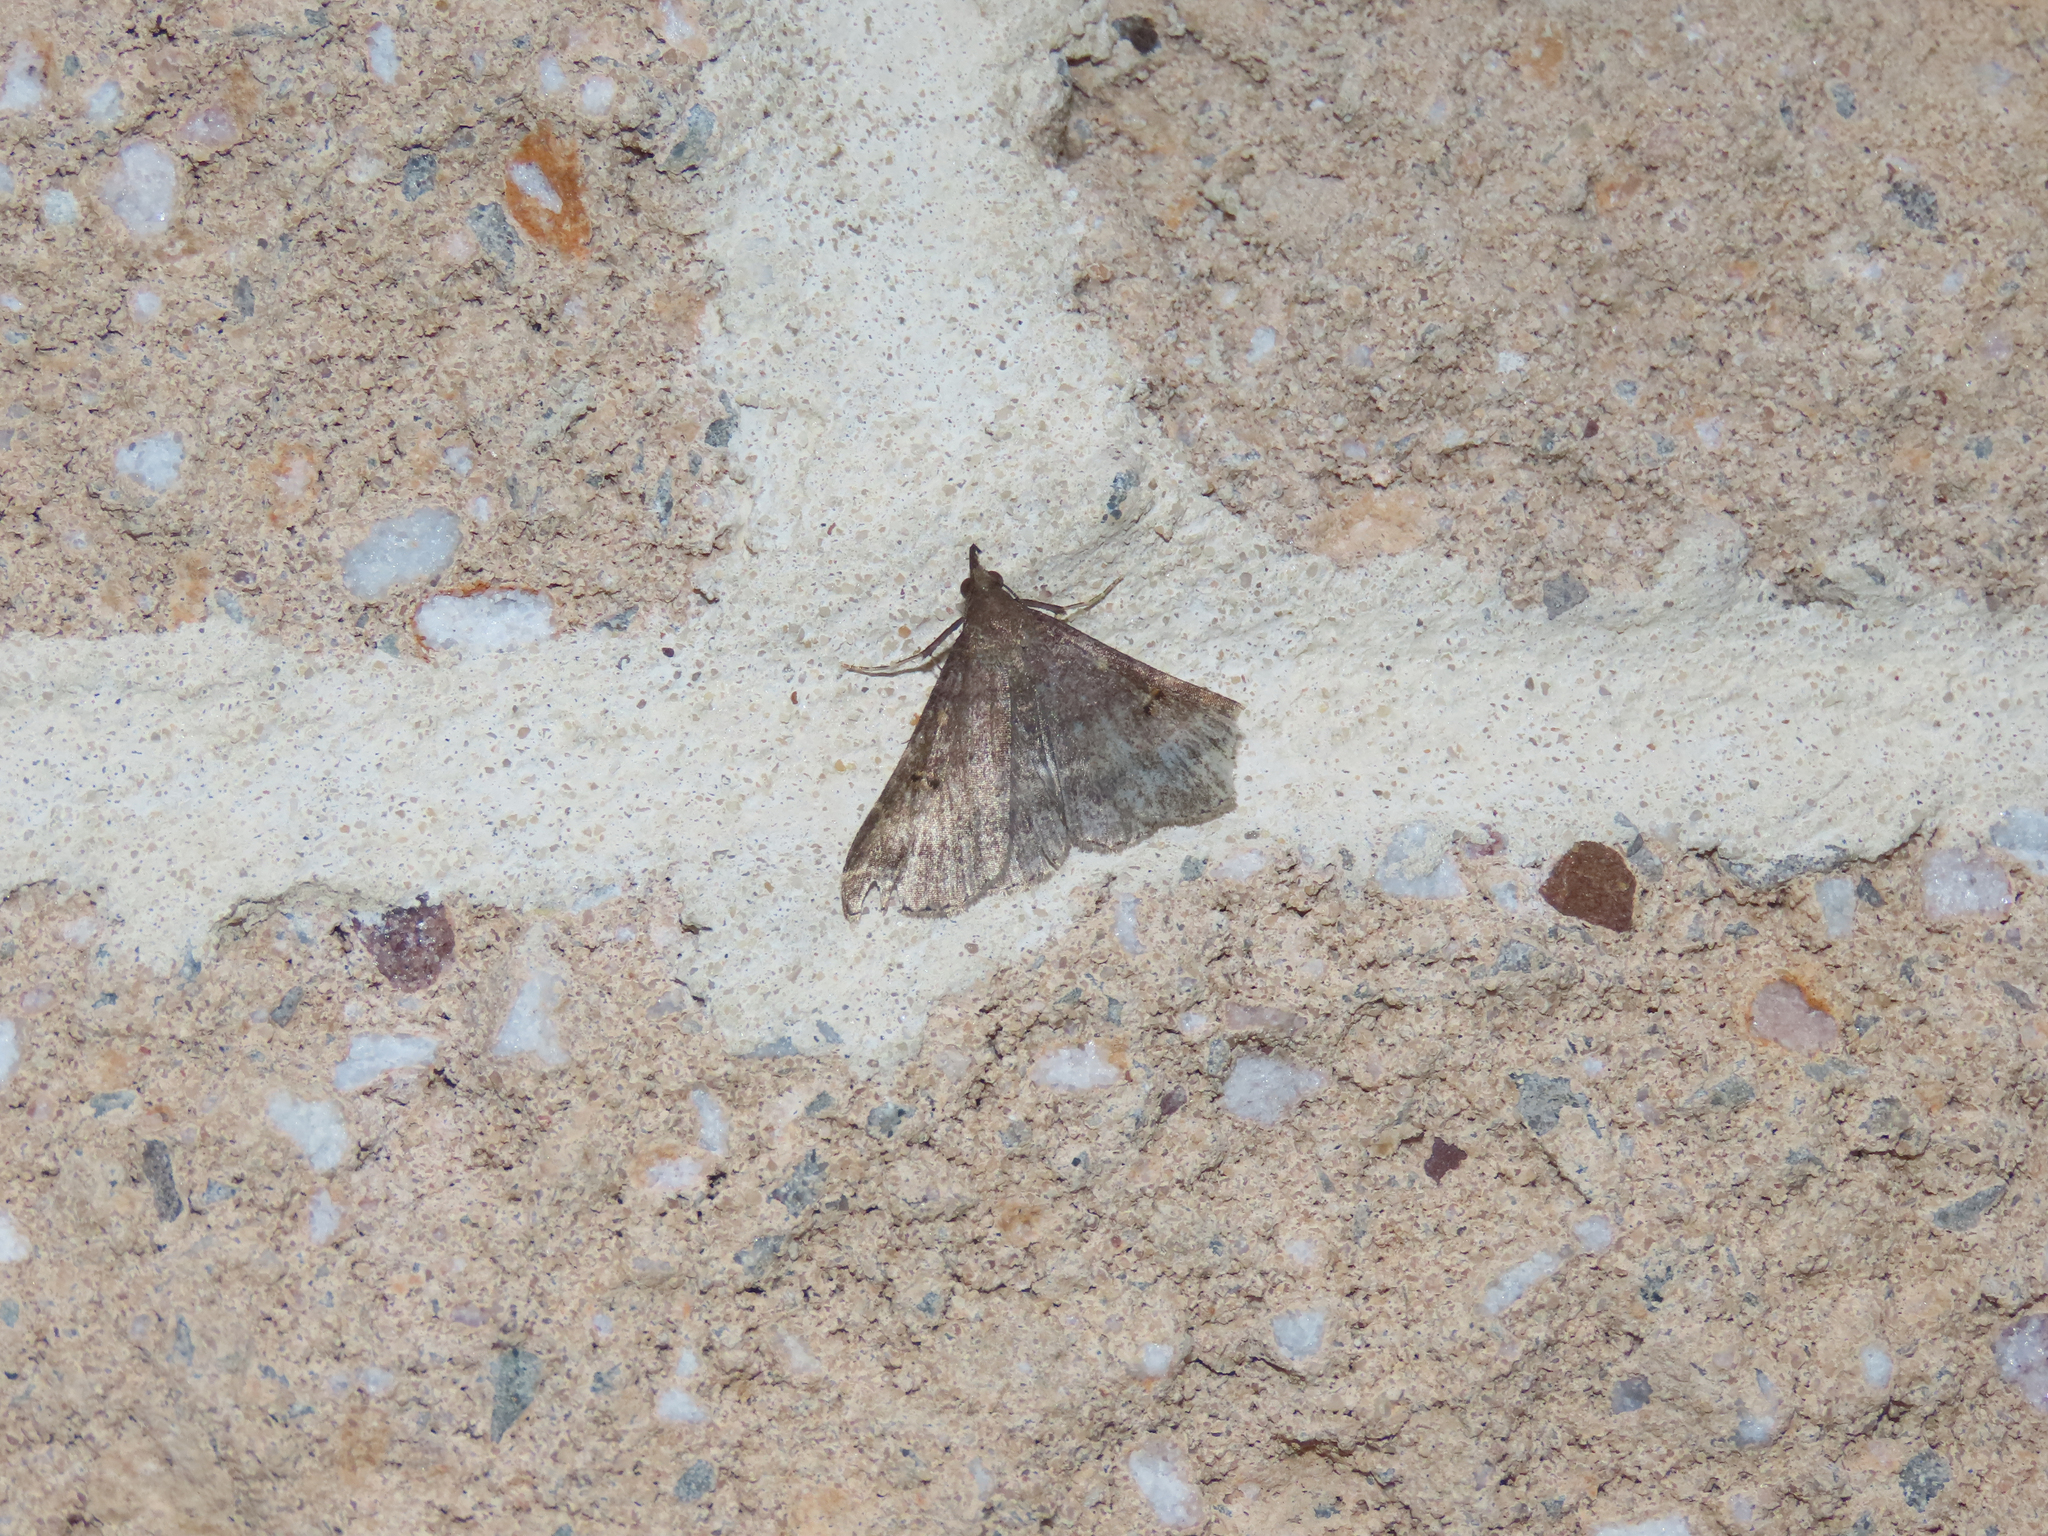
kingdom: Animalia
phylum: Arthropoda
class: Insecta
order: Lepidoptera
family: Erebidae
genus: Renia
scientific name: Renia factiosalis
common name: Sociable renia moth
